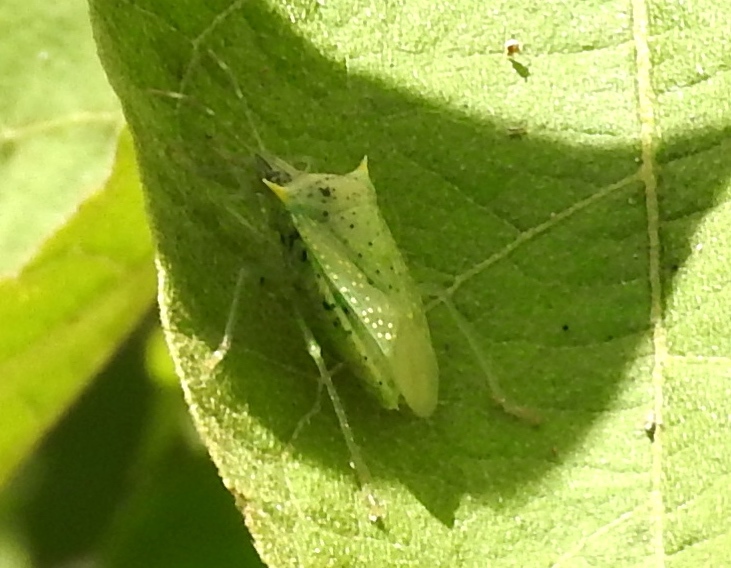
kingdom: Animalia
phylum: Arthropoda
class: Insecta
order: Hemiptera
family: Pentatomidae
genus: Arvelius
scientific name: Arvelius albopunctatus
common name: Tomato stink bug
